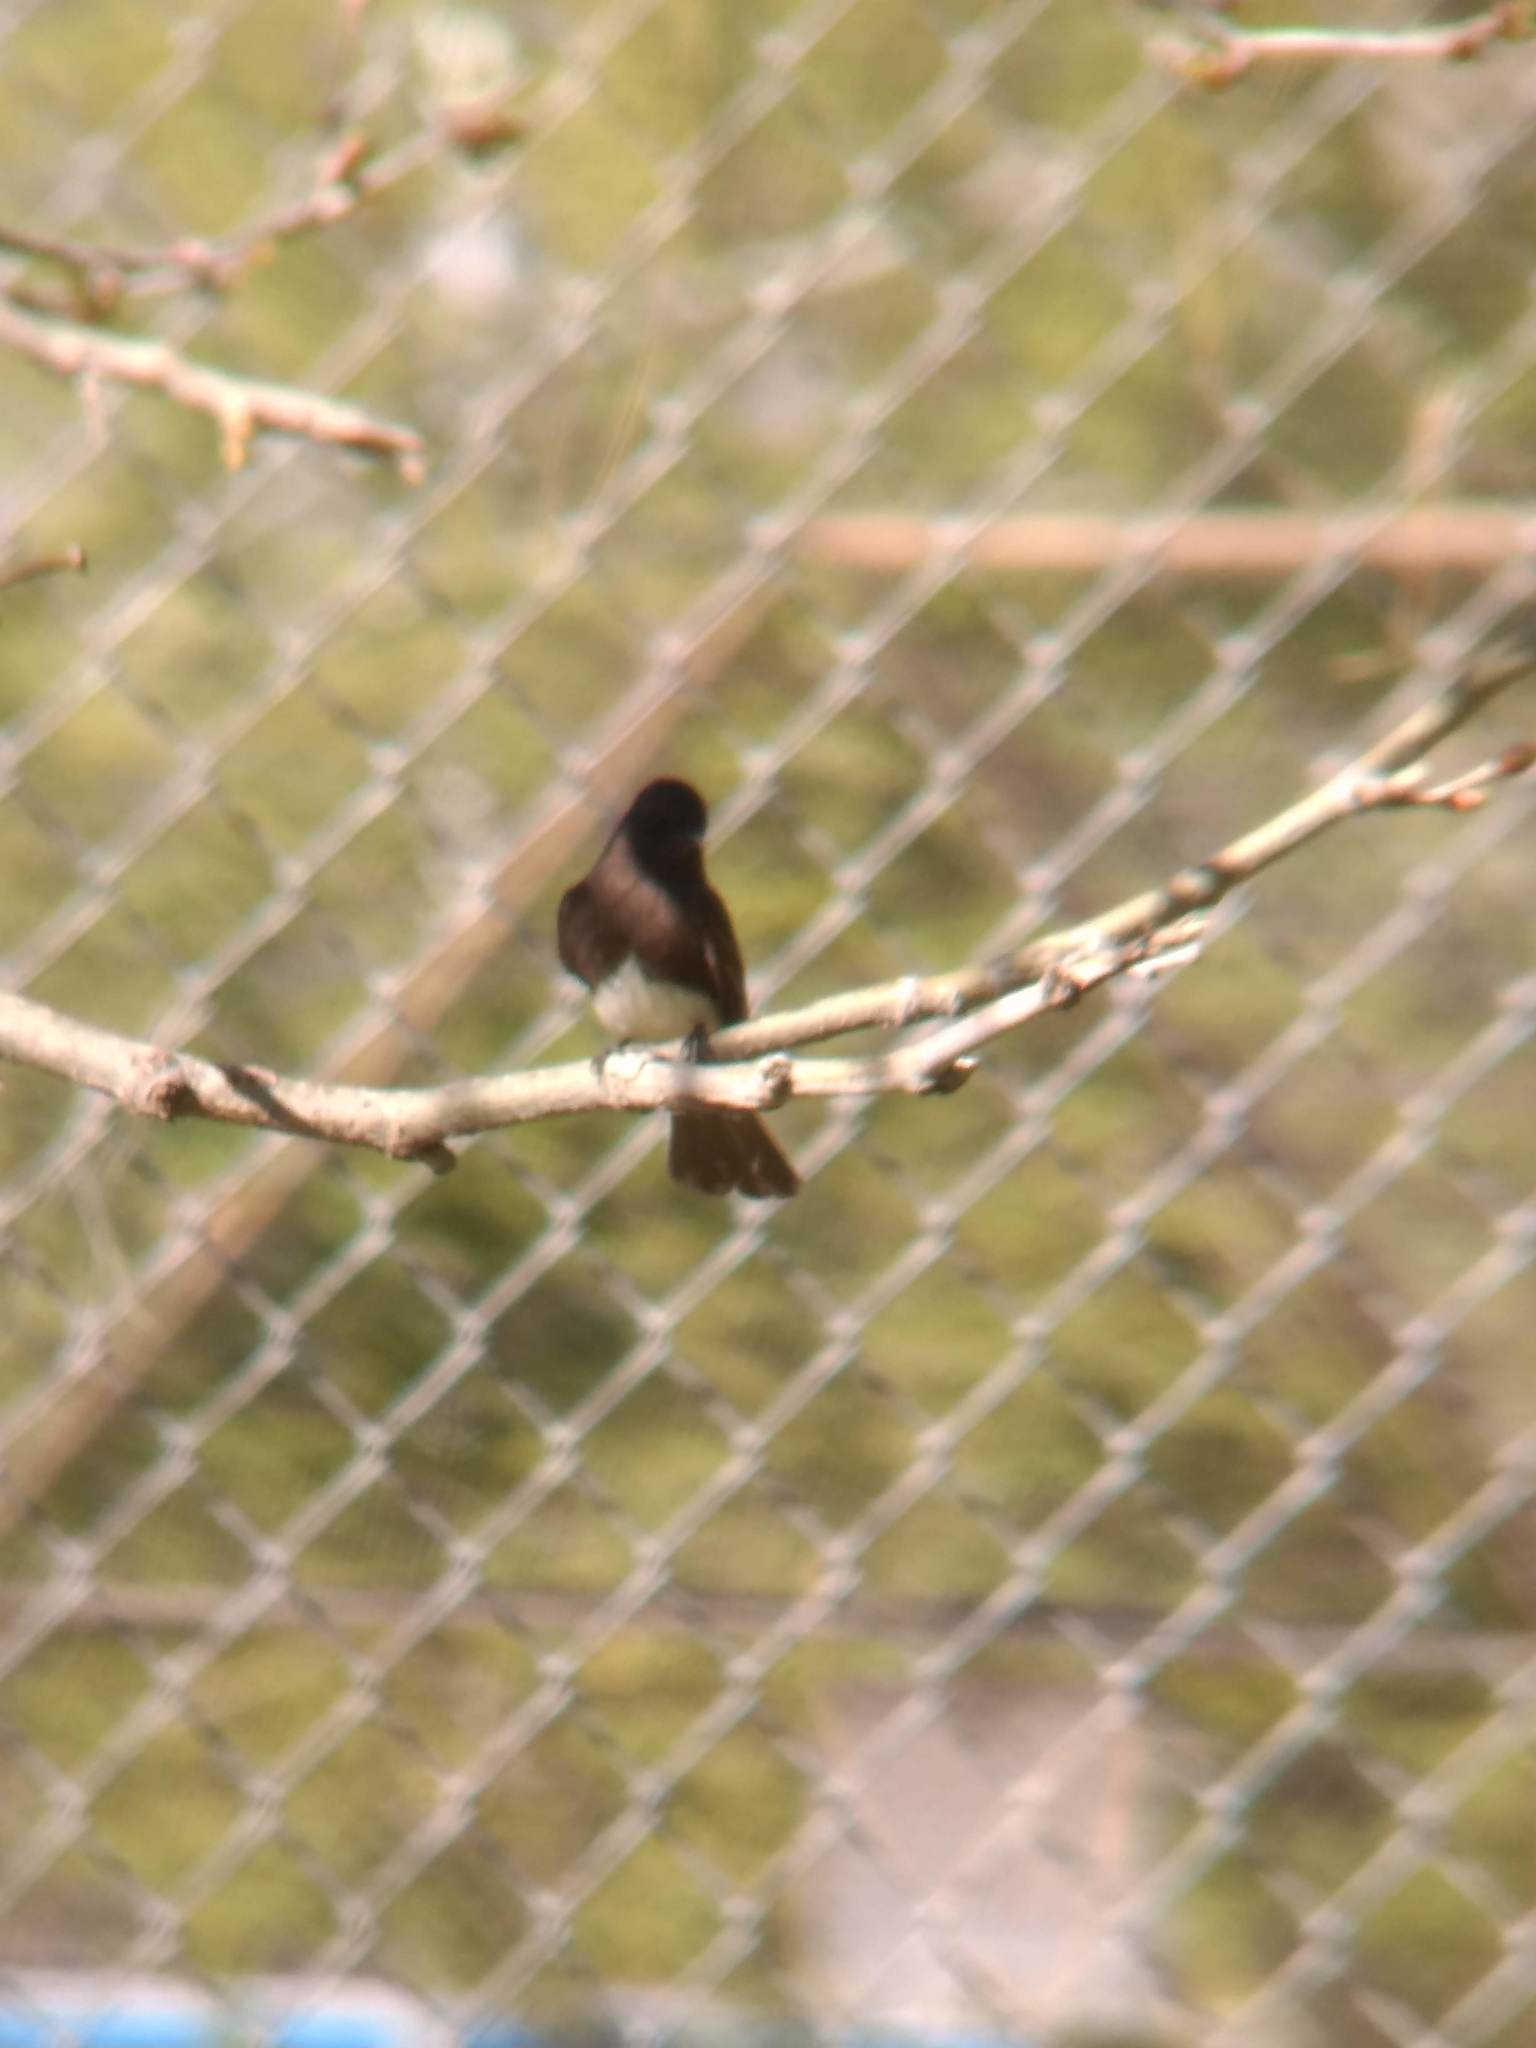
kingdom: Animalia
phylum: Chordata
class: Aves
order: Passeriformes
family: Tyrannidae
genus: Sayornis
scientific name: Sayornis nigricans
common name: Black phoebe
